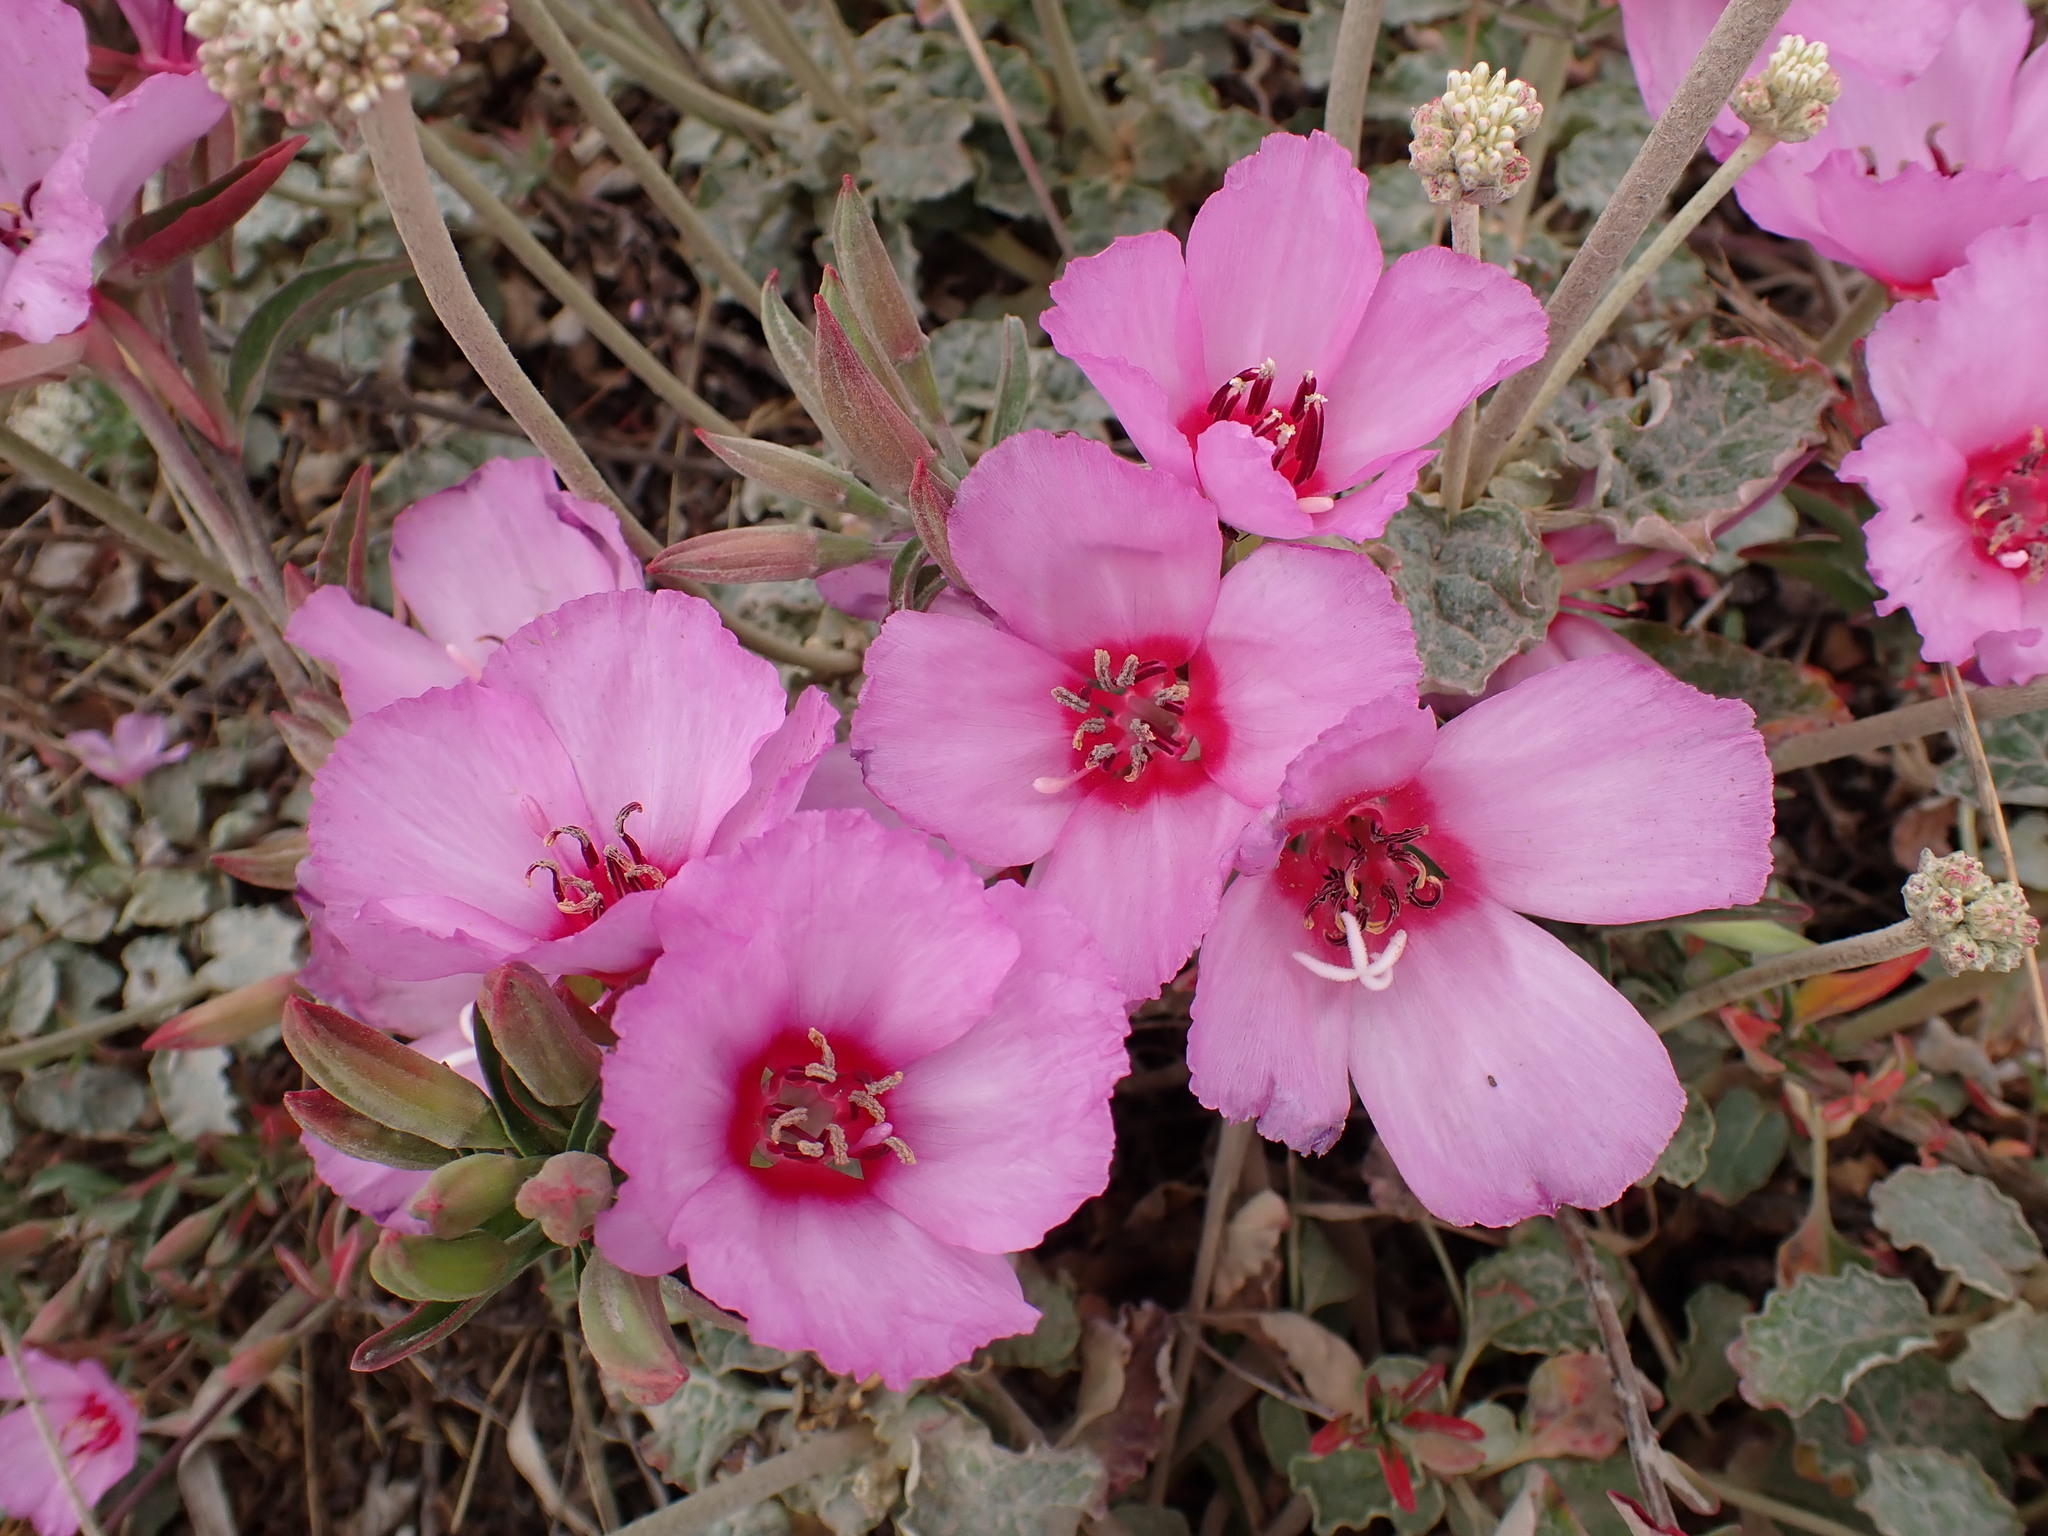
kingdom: Plantae
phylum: Tracheophyta
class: Magnoliopsida
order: Myrtales
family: Onagraceae
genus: Clarkia
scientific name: Clarkia rubicunda
